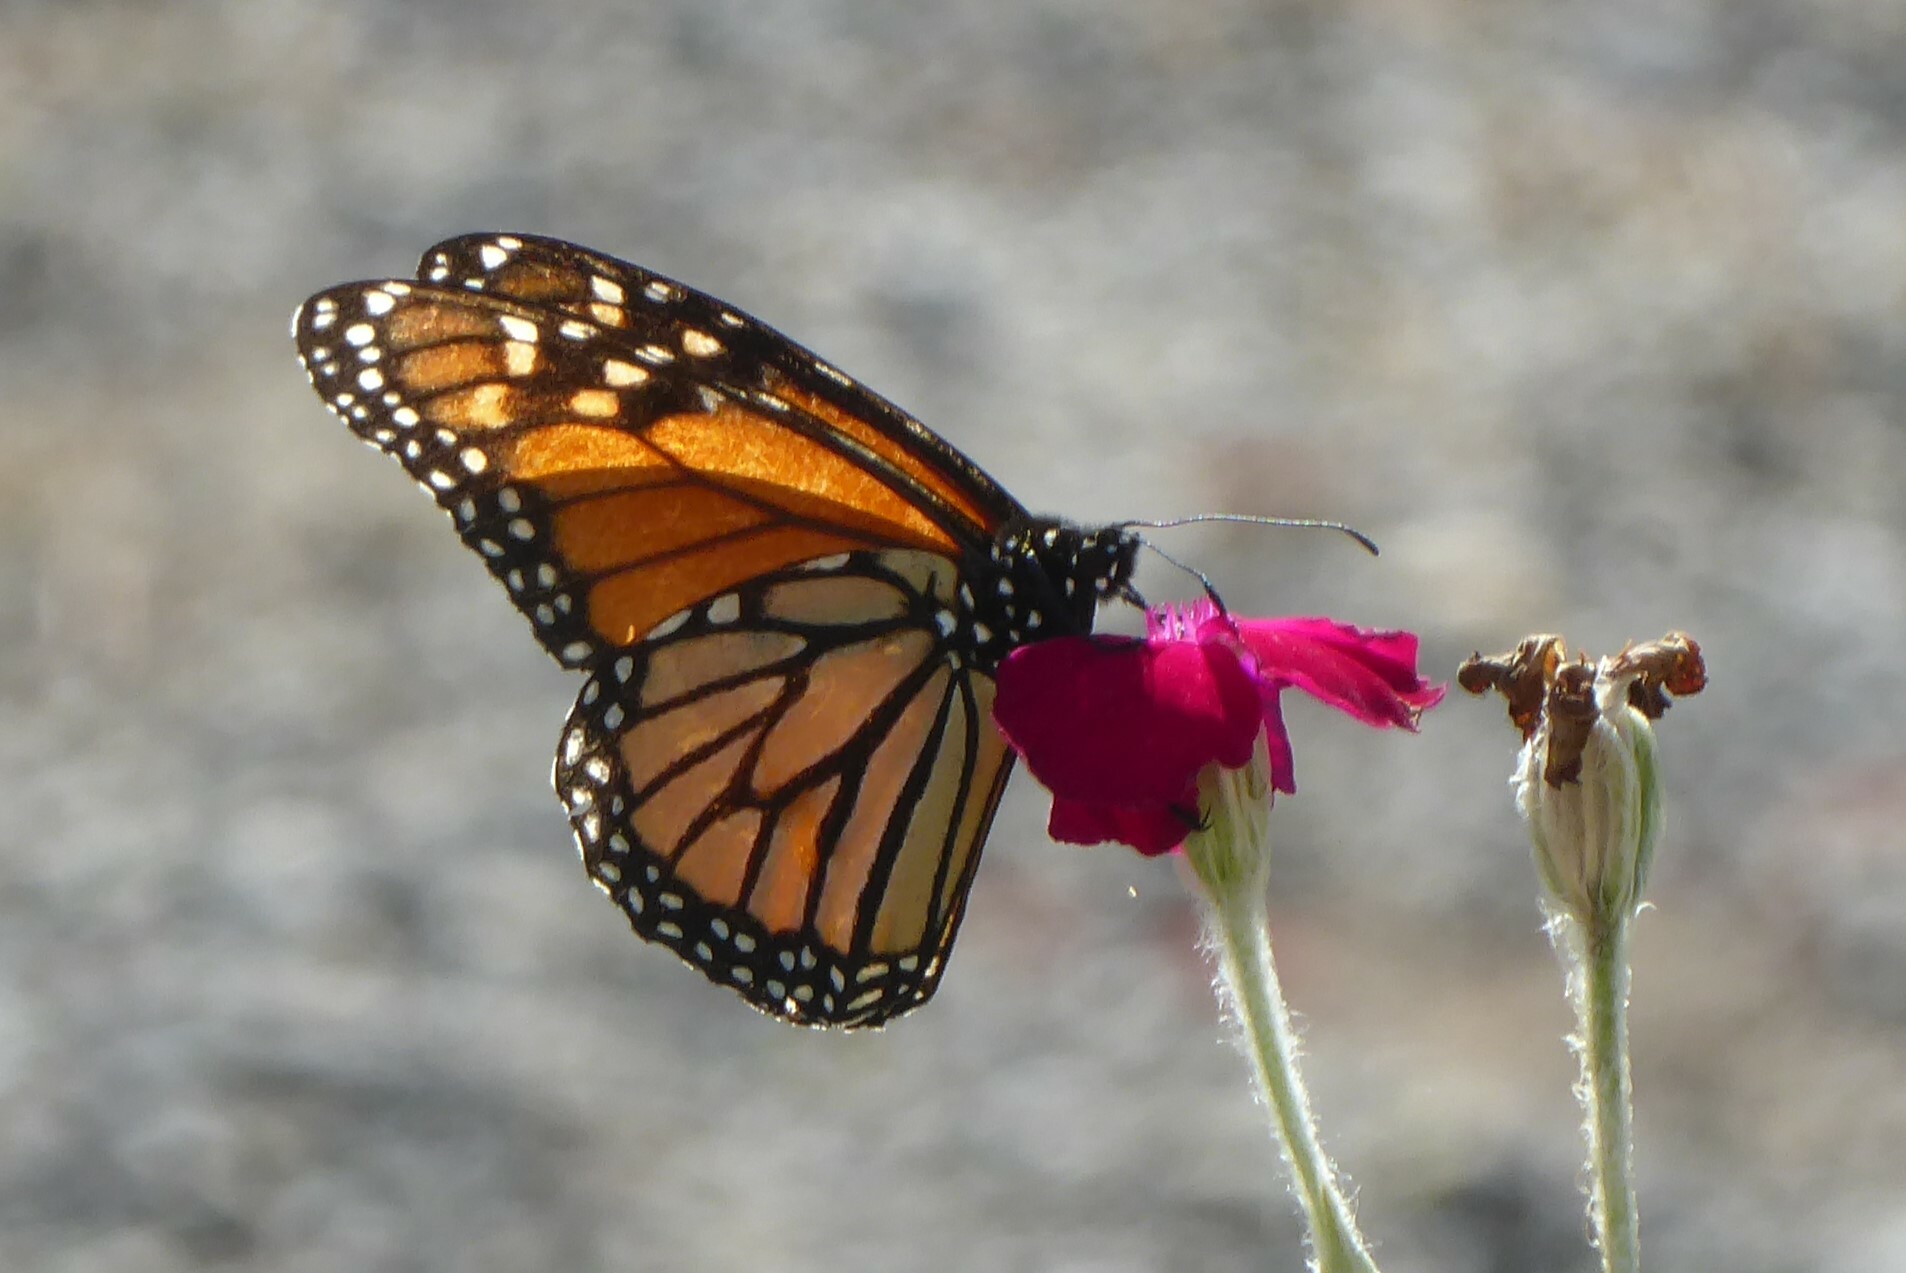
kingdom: Animalia
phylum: Arthropoda
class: Insecta
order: Lepidoptera
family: Nymphalidae
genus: Danaus
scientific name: Danaus plexippus
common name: Monarch
